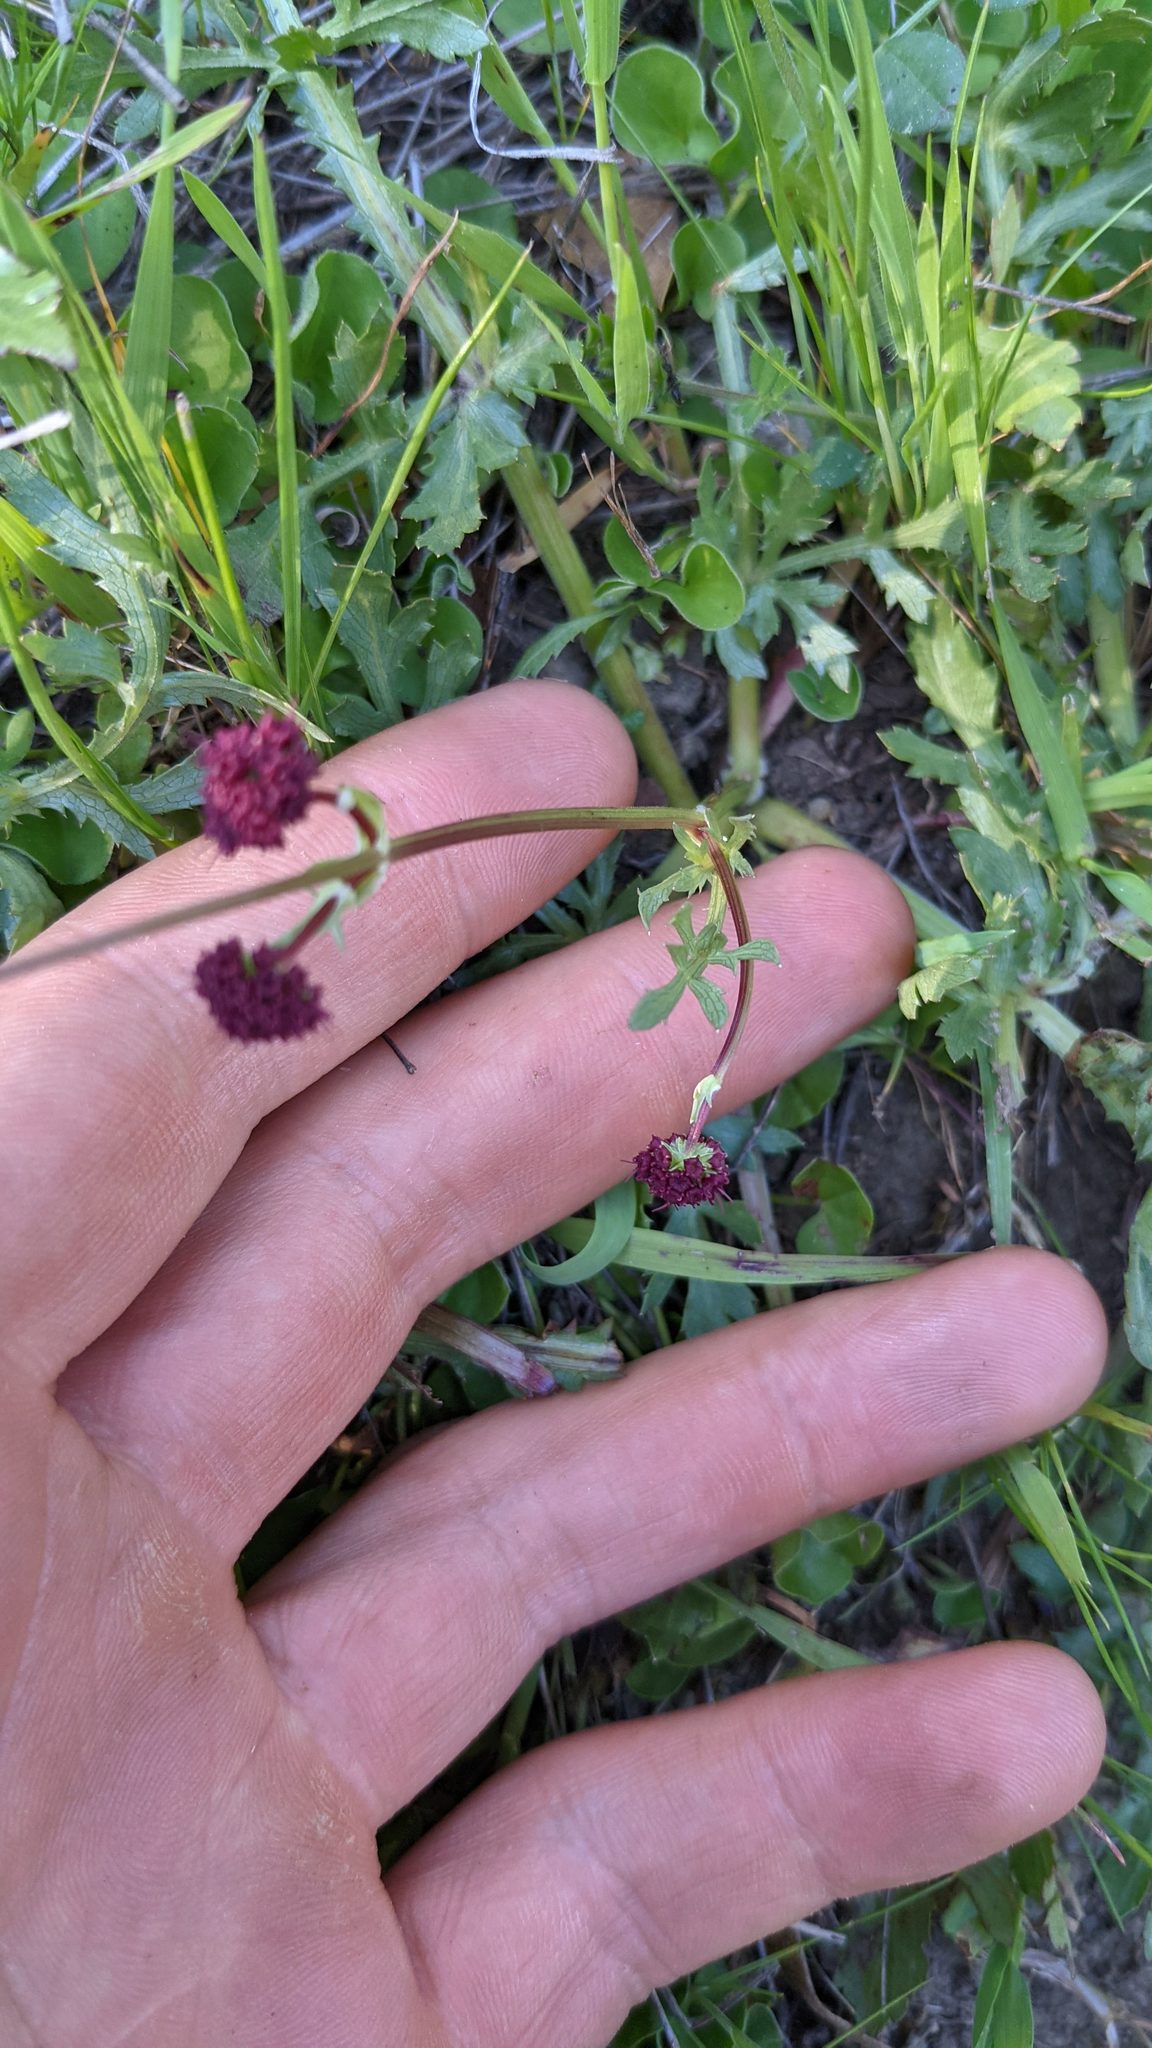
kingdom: Plantae
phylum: Tracheophyta
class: Magnoliopsida
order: Apiales
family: Apiaceae
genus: Sanicula
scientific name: Sanicula bipinnatifida
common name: Shoe-buttons
